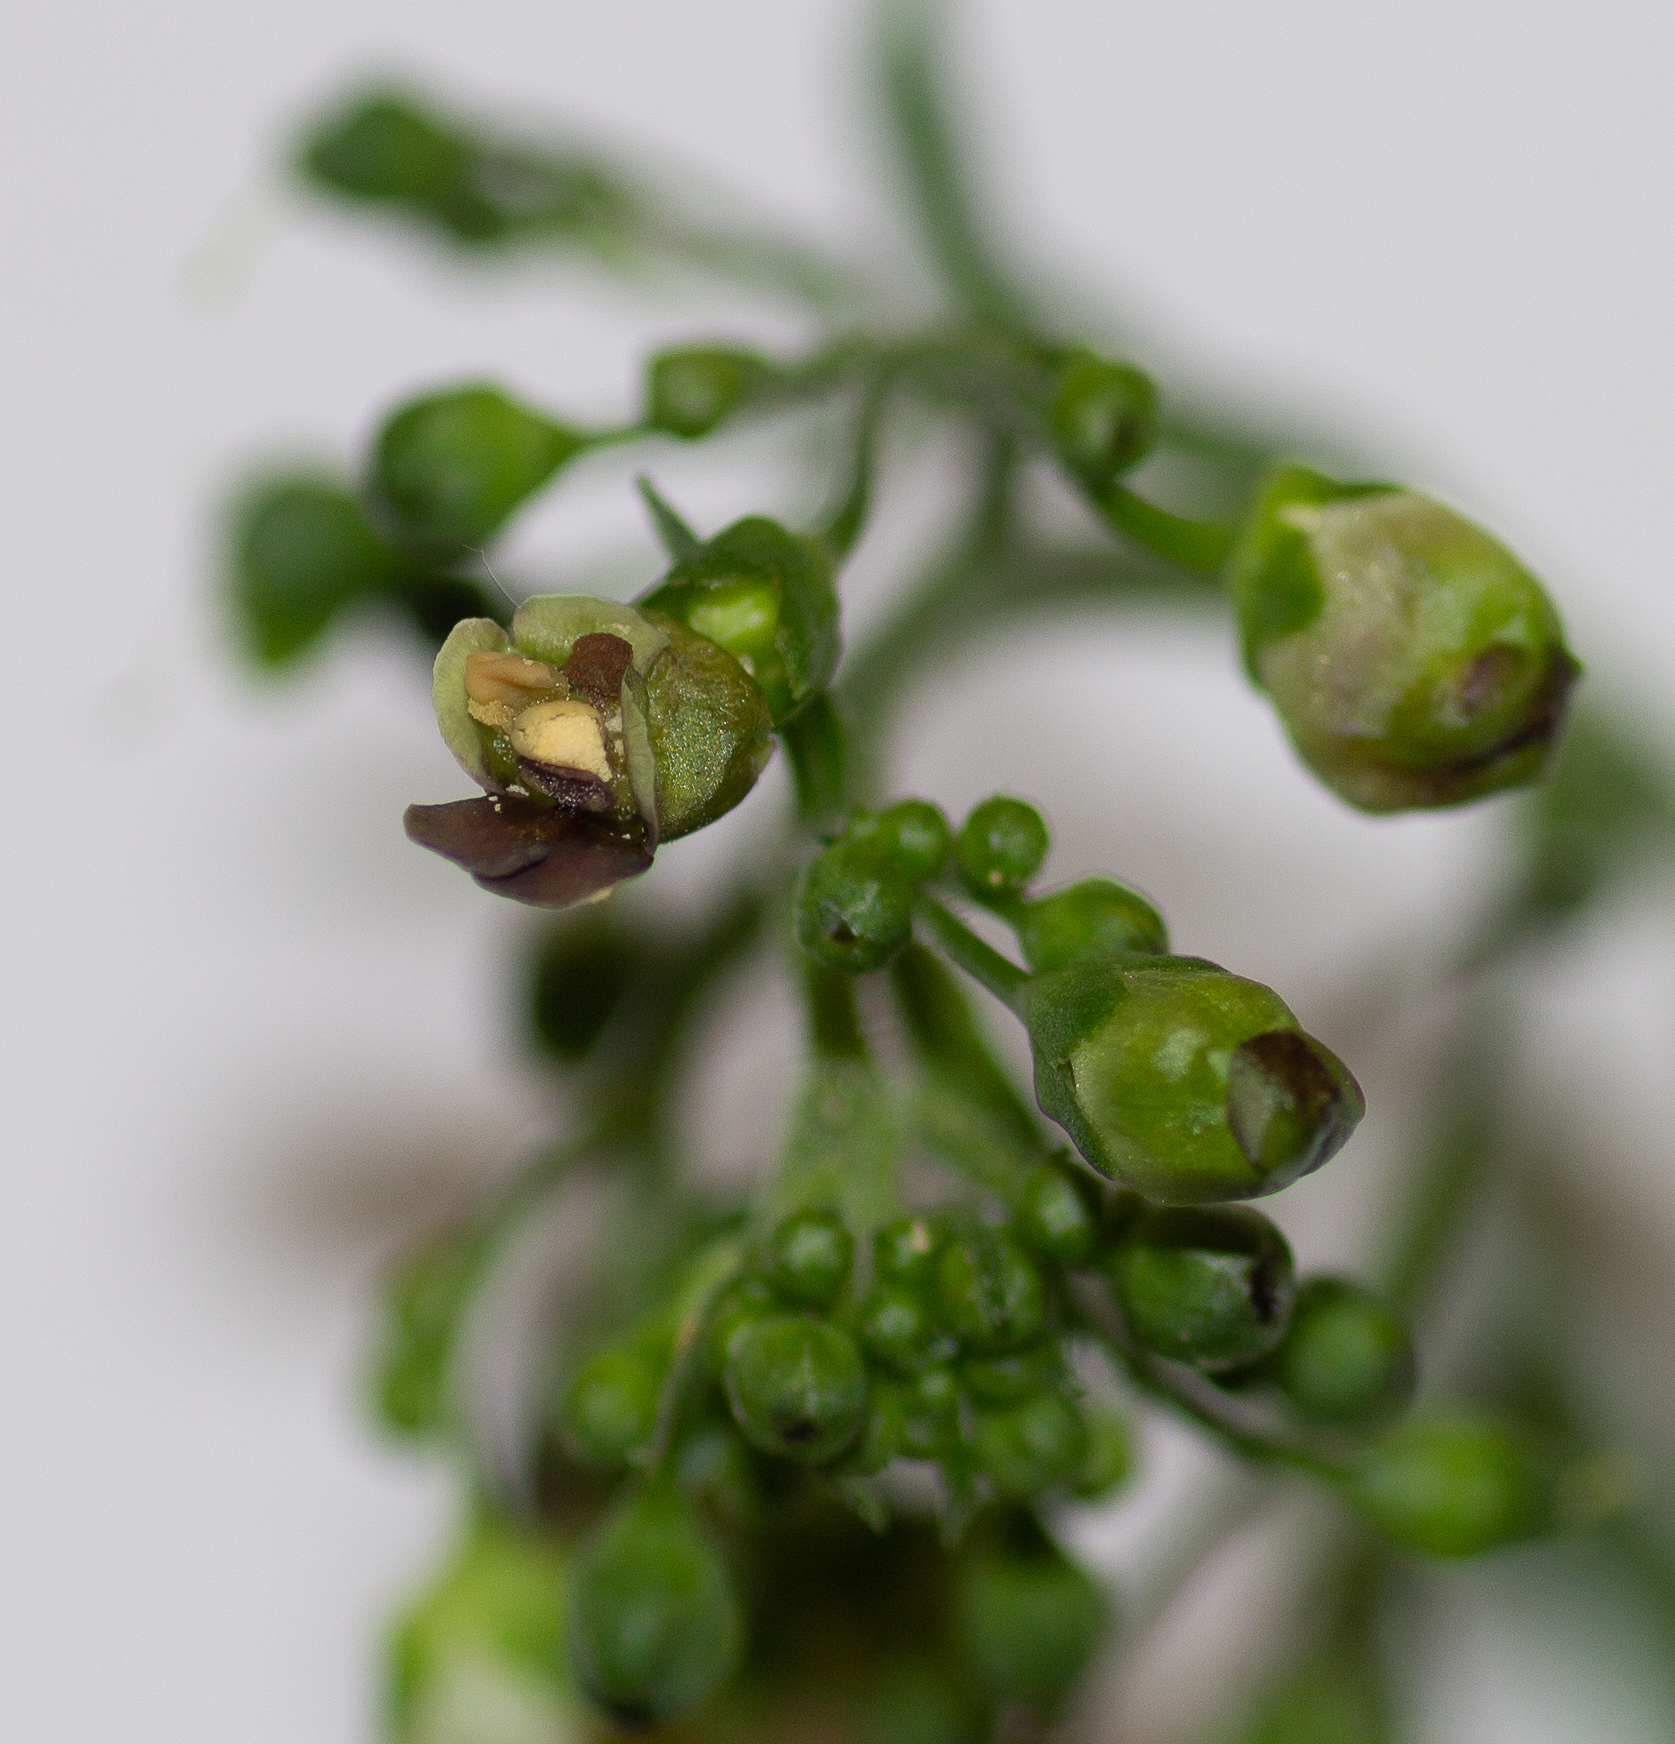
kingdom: Plantae
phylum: Tracheophyta
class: Magnoliopsida
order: Lamiales
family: Scrophulariaceae
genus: Scrophularia
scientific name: Scrophularia umbrosa
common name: Green figwort
